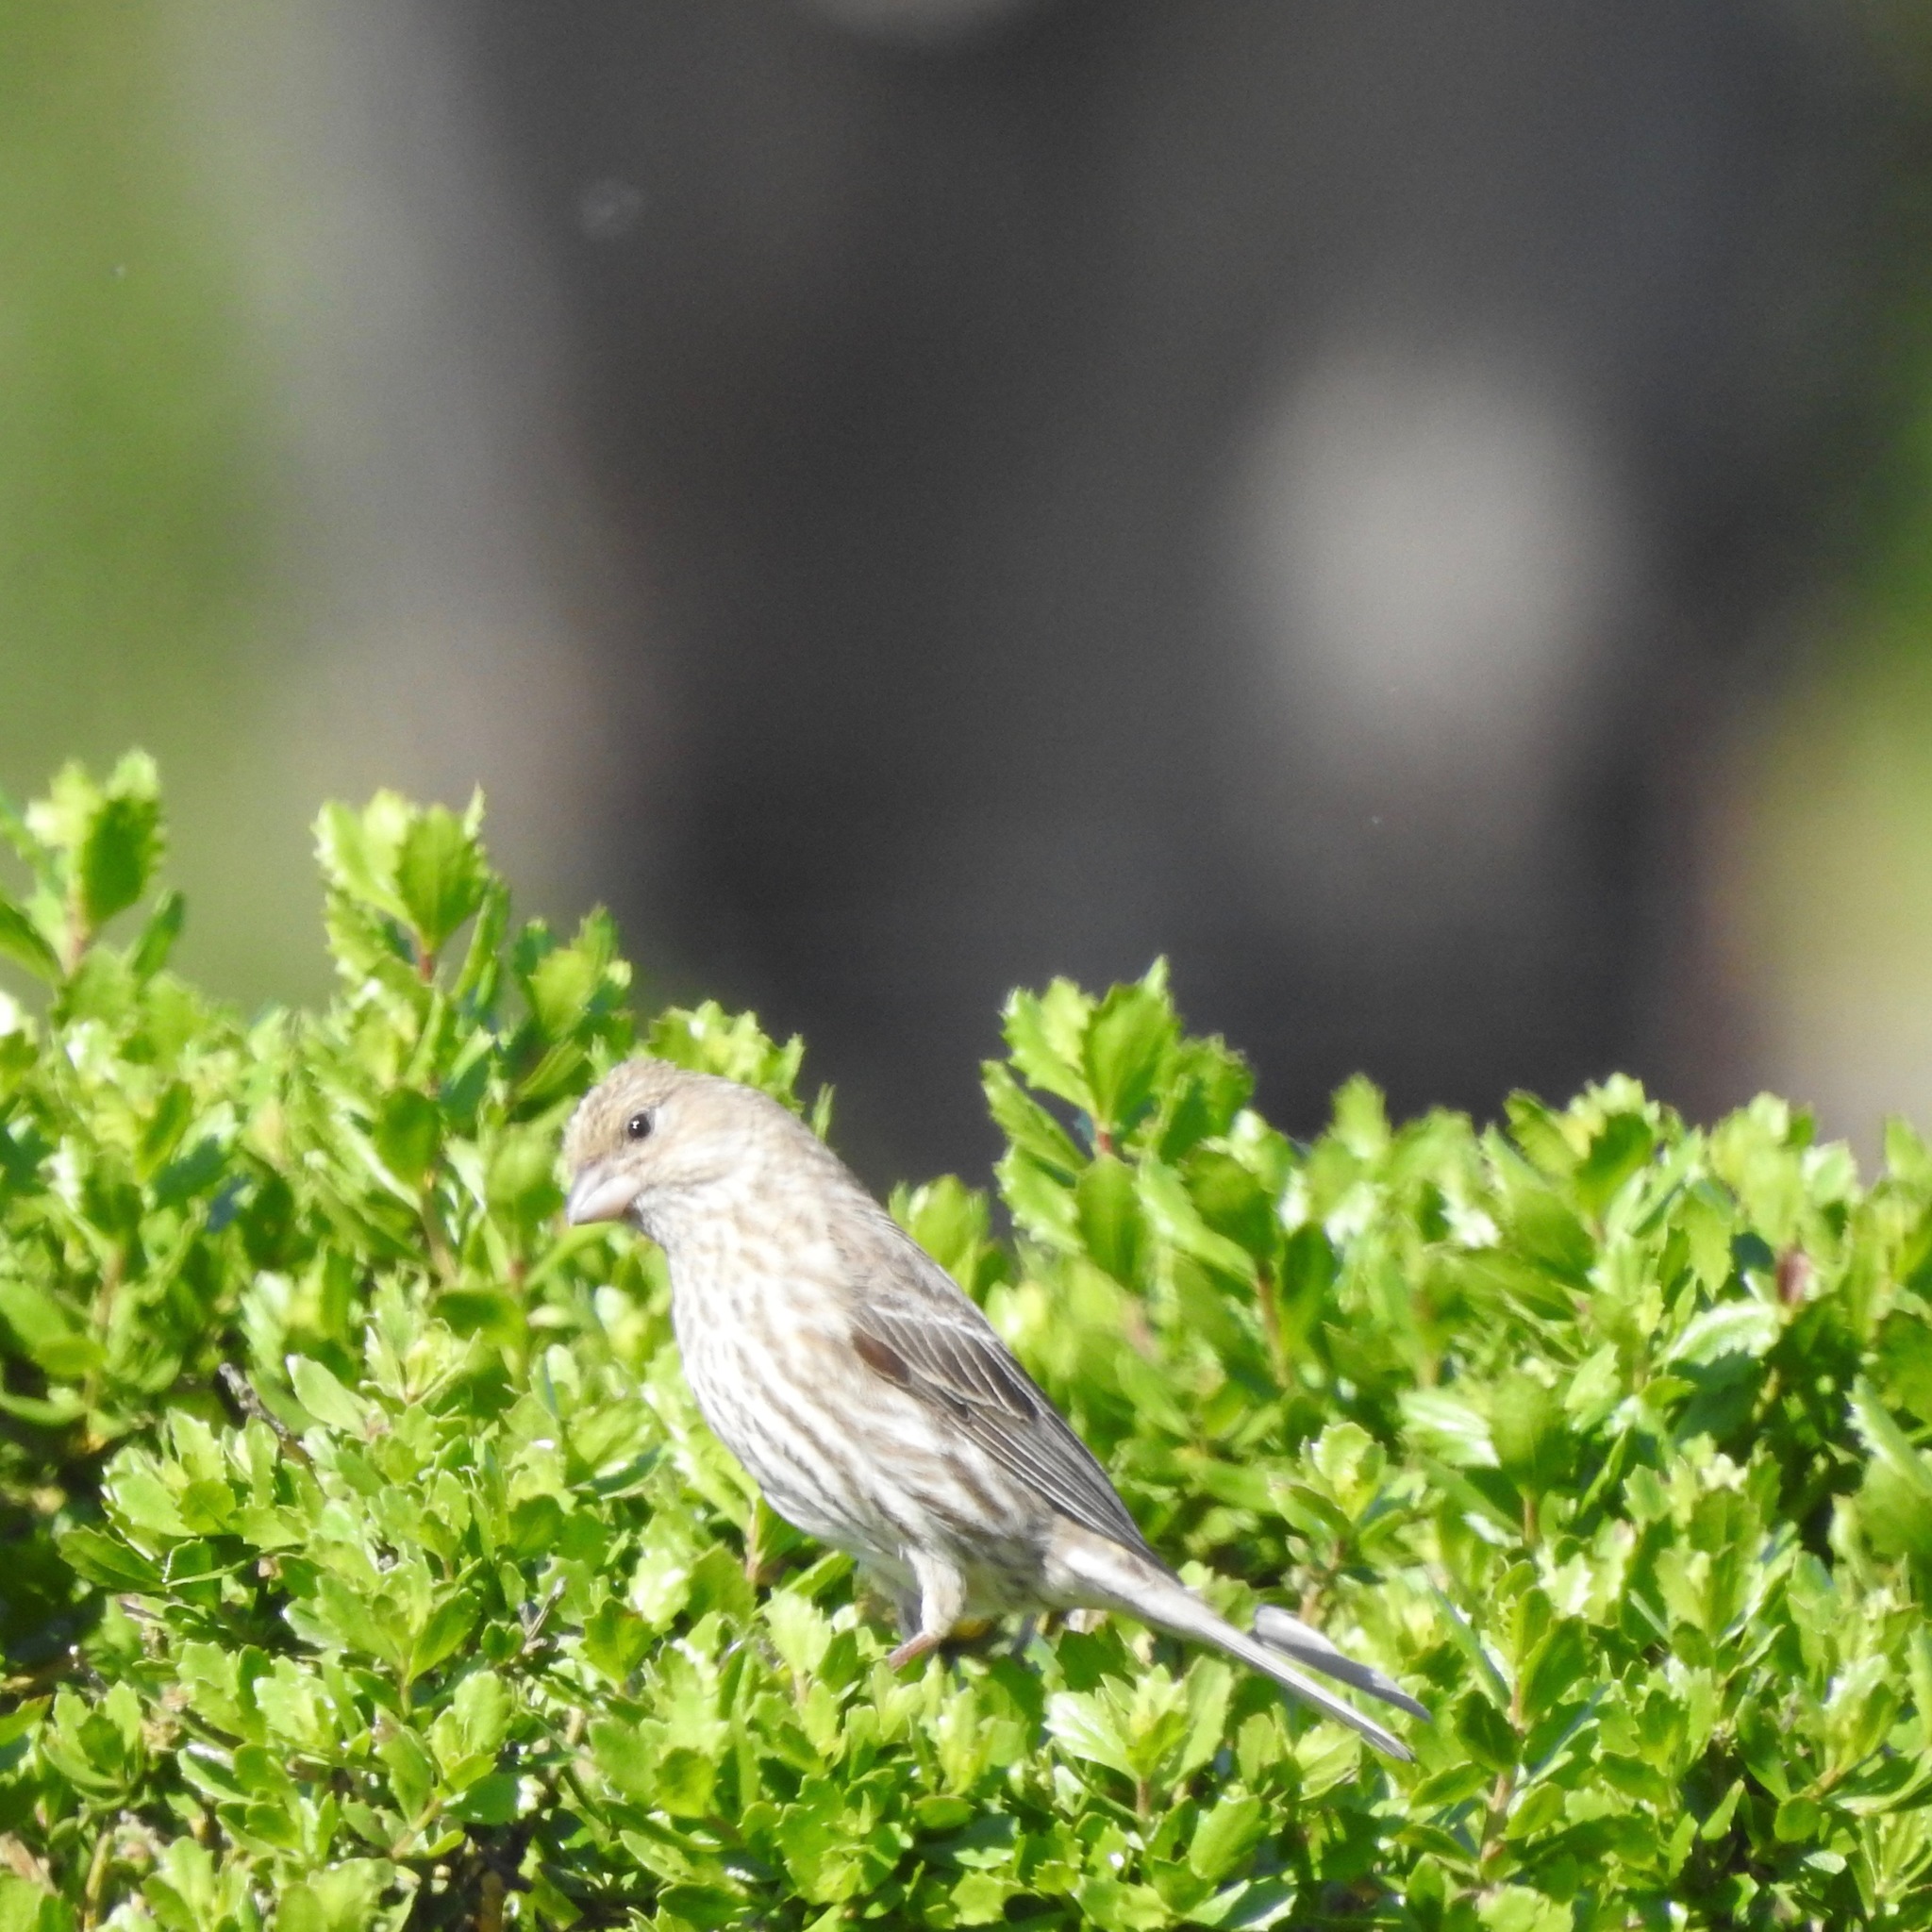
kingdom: Animalia
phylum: Chordata
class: Aves
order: Passeriformes
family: Fringillidae
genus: Haemorhous
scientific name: Haemorhous mexicanus
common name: House finch
